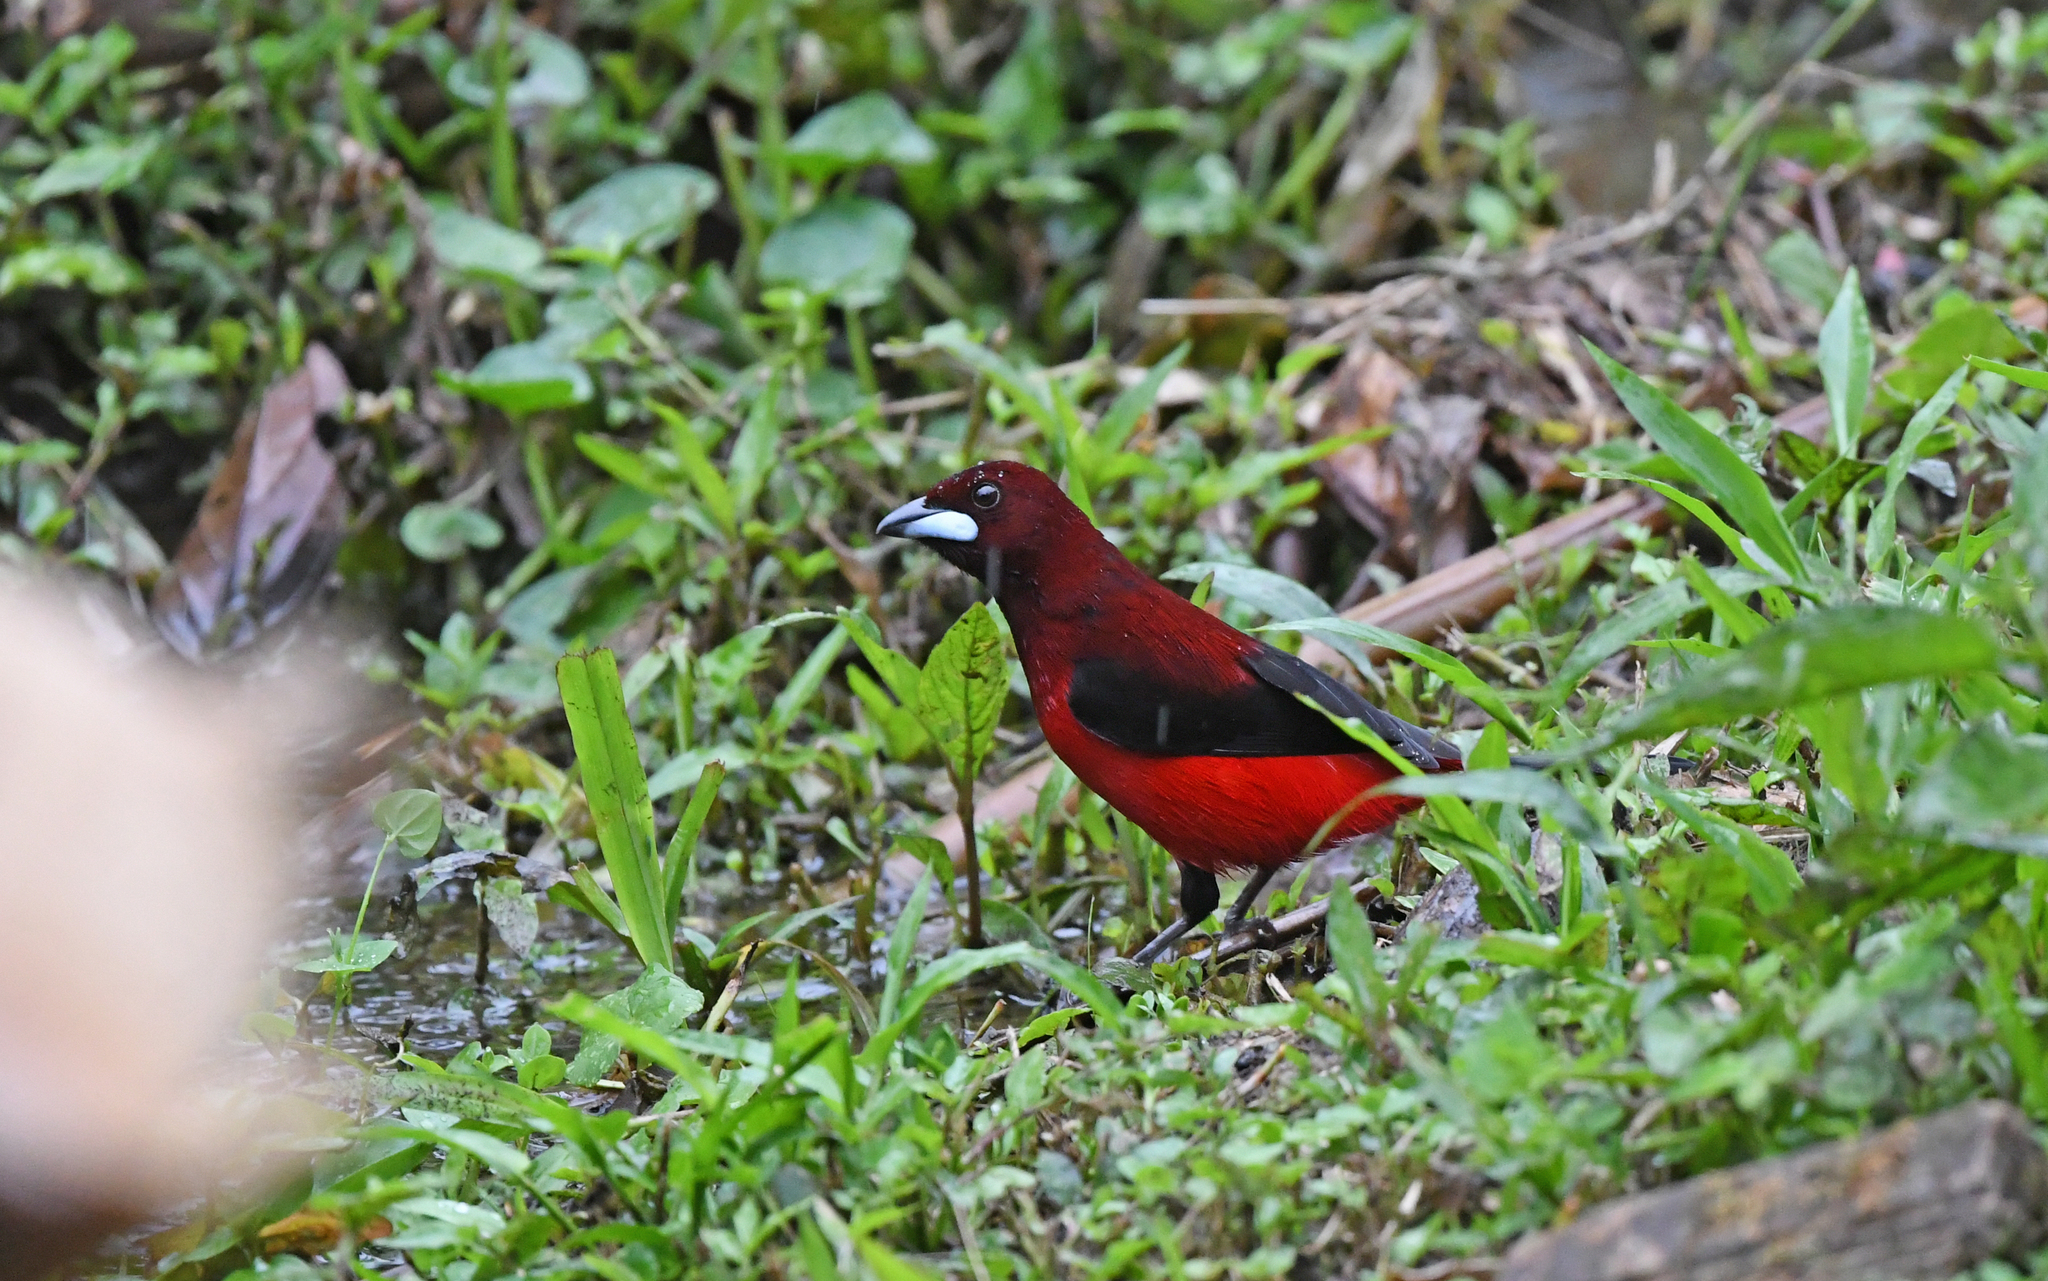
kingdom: Animalia
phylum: Chordata
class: Aves
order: Passeriformes
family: Thraupidae
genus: Ramphocelus
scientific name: Ramphocelus dimidiatus
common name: Crimson-backed tanager
